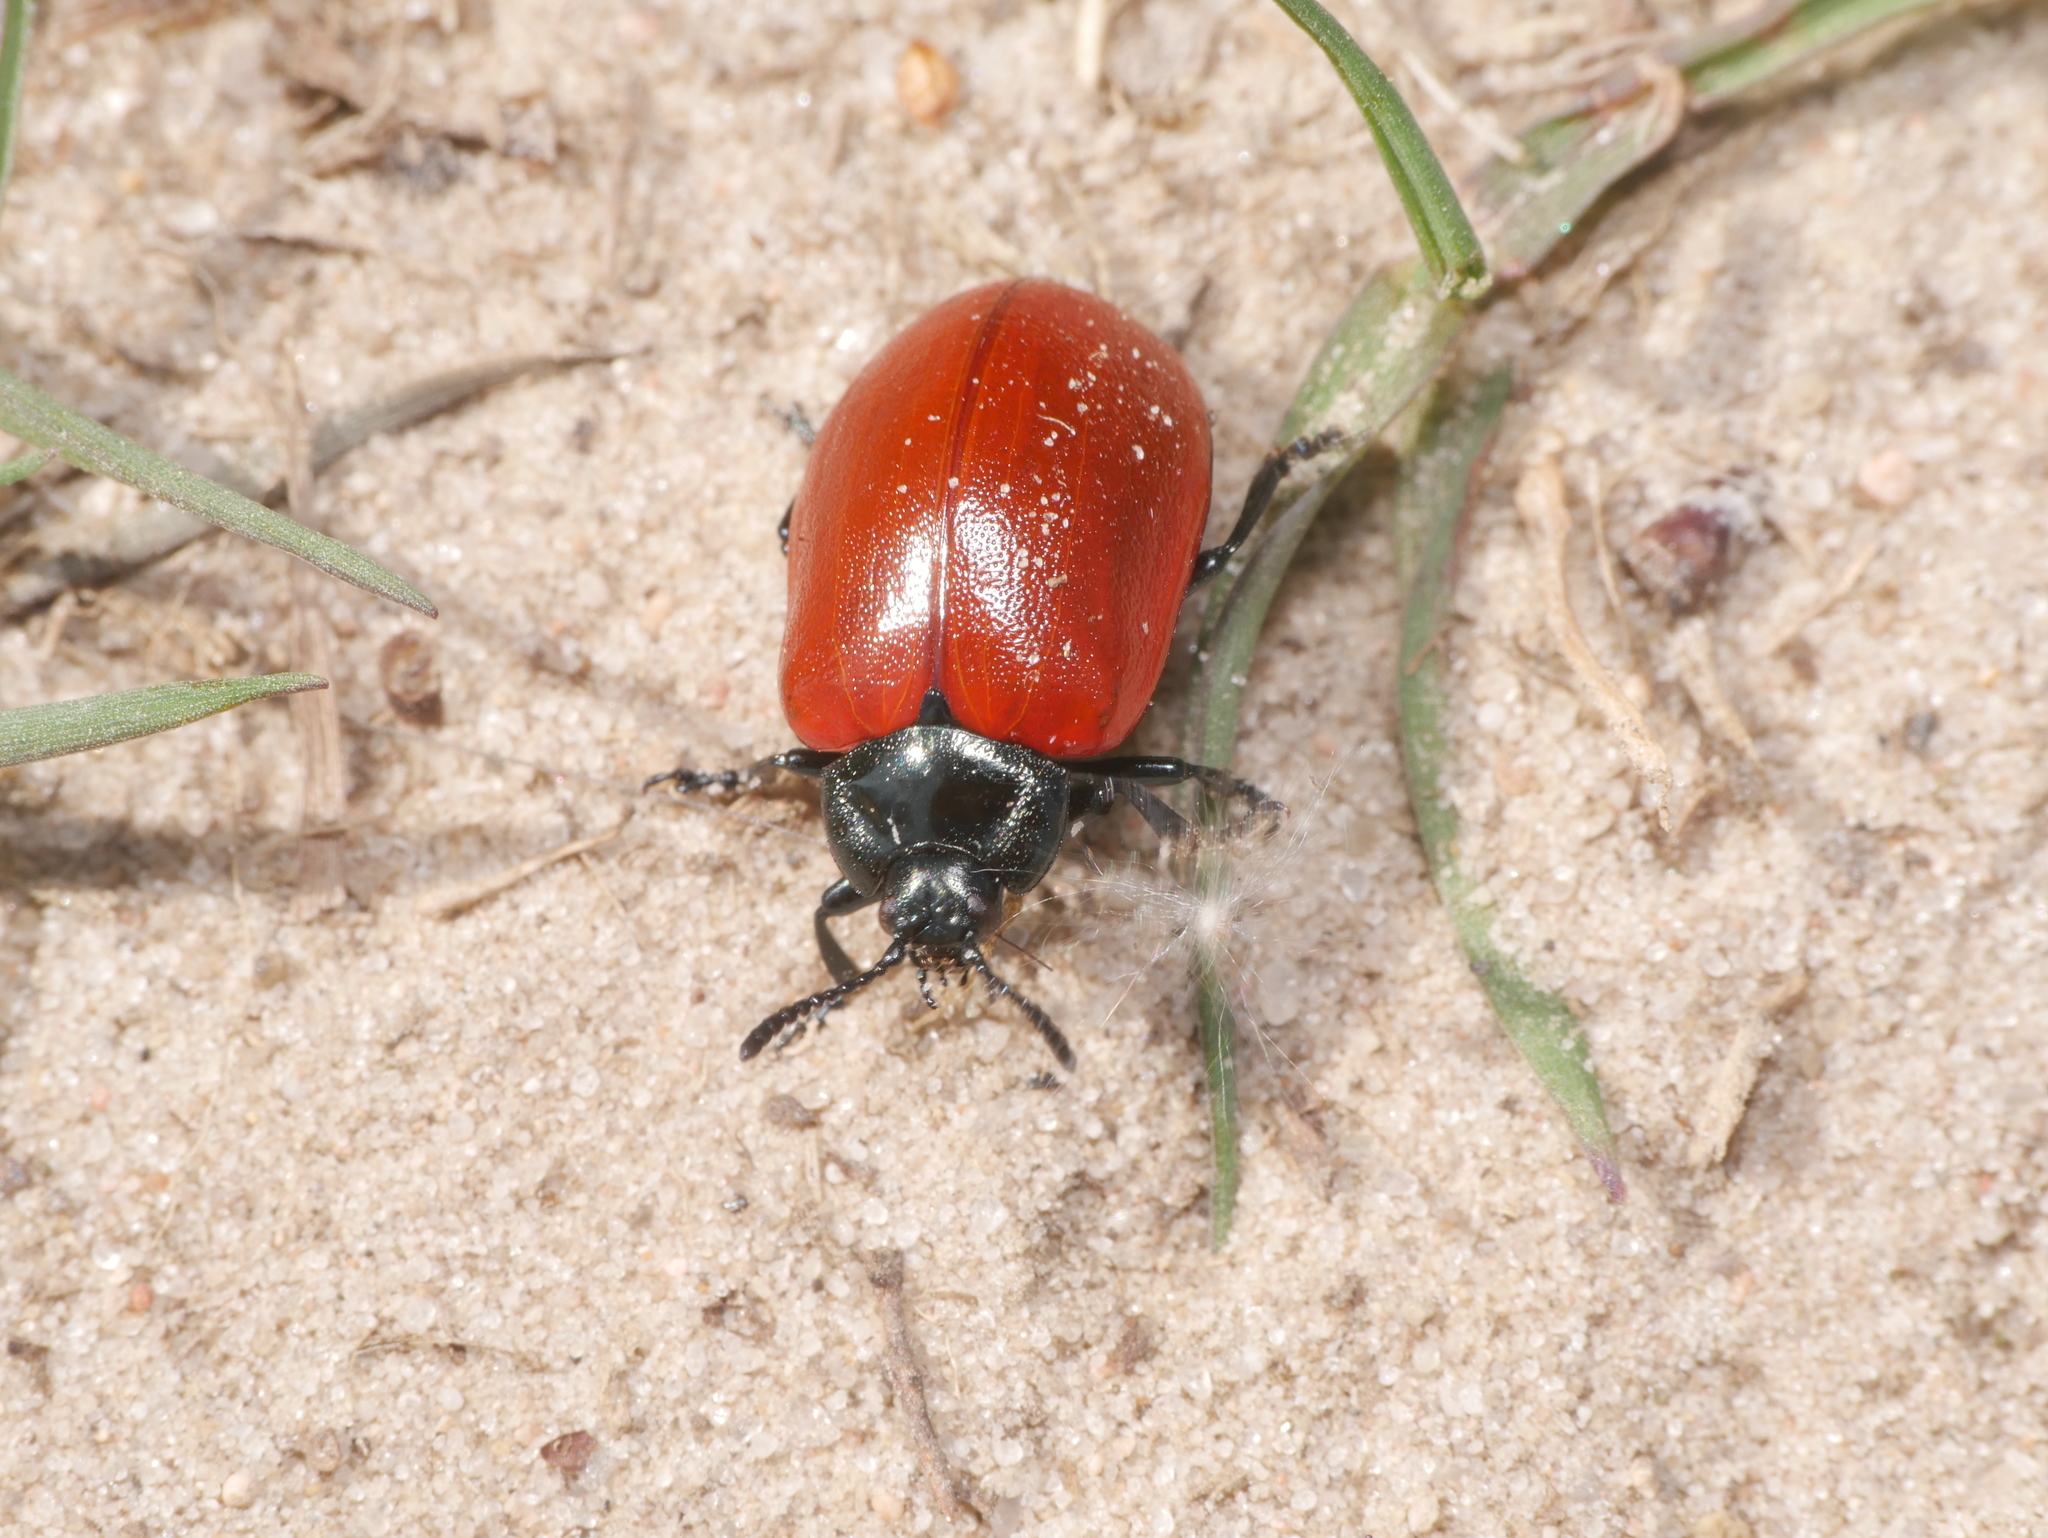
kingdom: Animalia
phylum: Arthropoda
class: Insecta
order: Coleoptera
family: Chrysomelidae
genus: Chrysomela
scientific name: Chrysomela populi
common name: Red poplar leaf beetle
